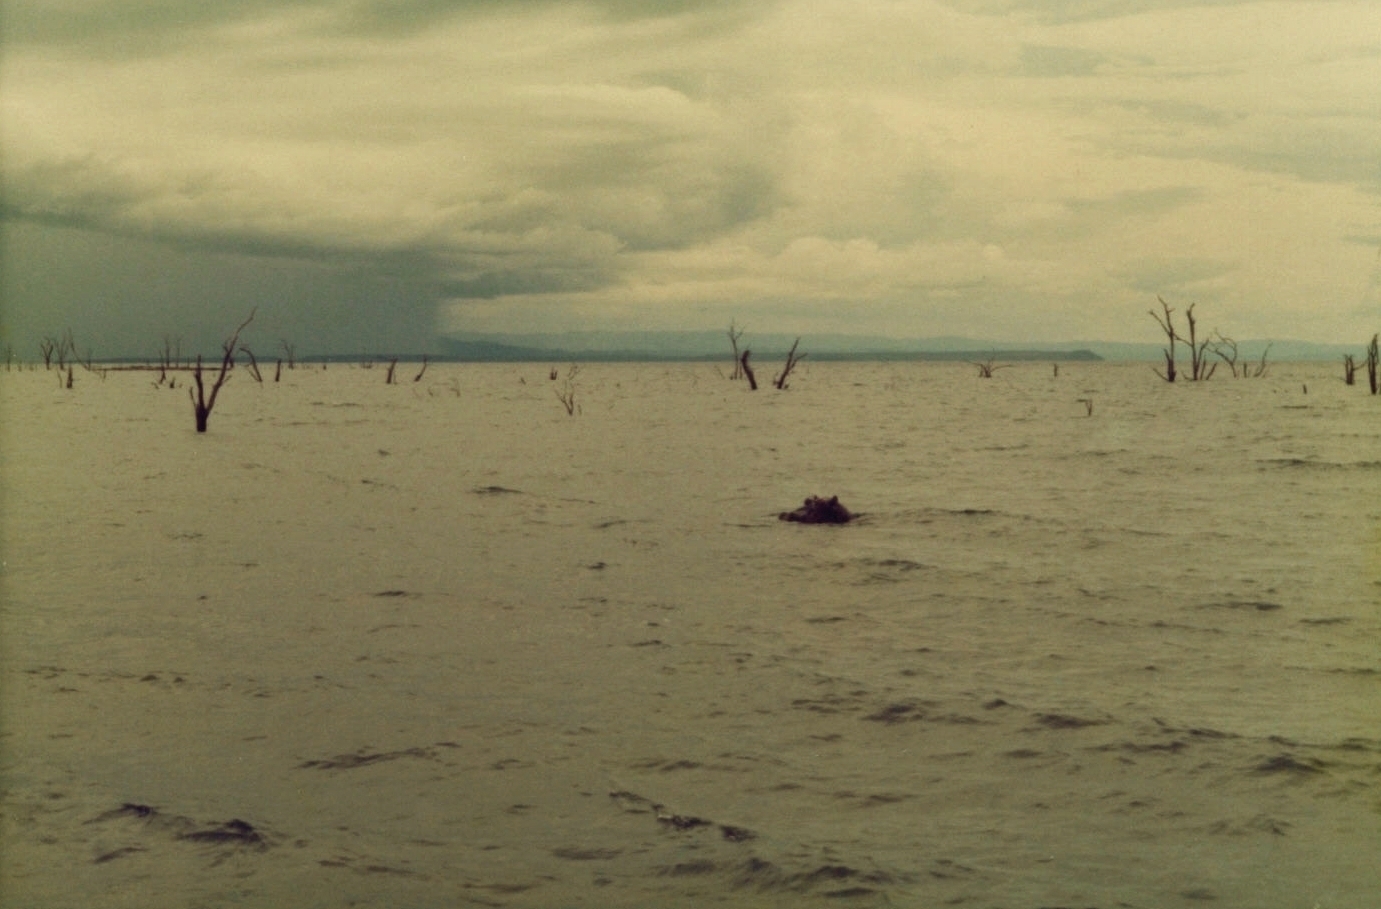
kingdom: Animalia
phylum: Chordata
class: Mammalia
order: Artiodactyla
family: Hippopotamidae
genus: Hippopotamus
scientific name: Hippopotamus amphibius
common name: Common hippopotamus
